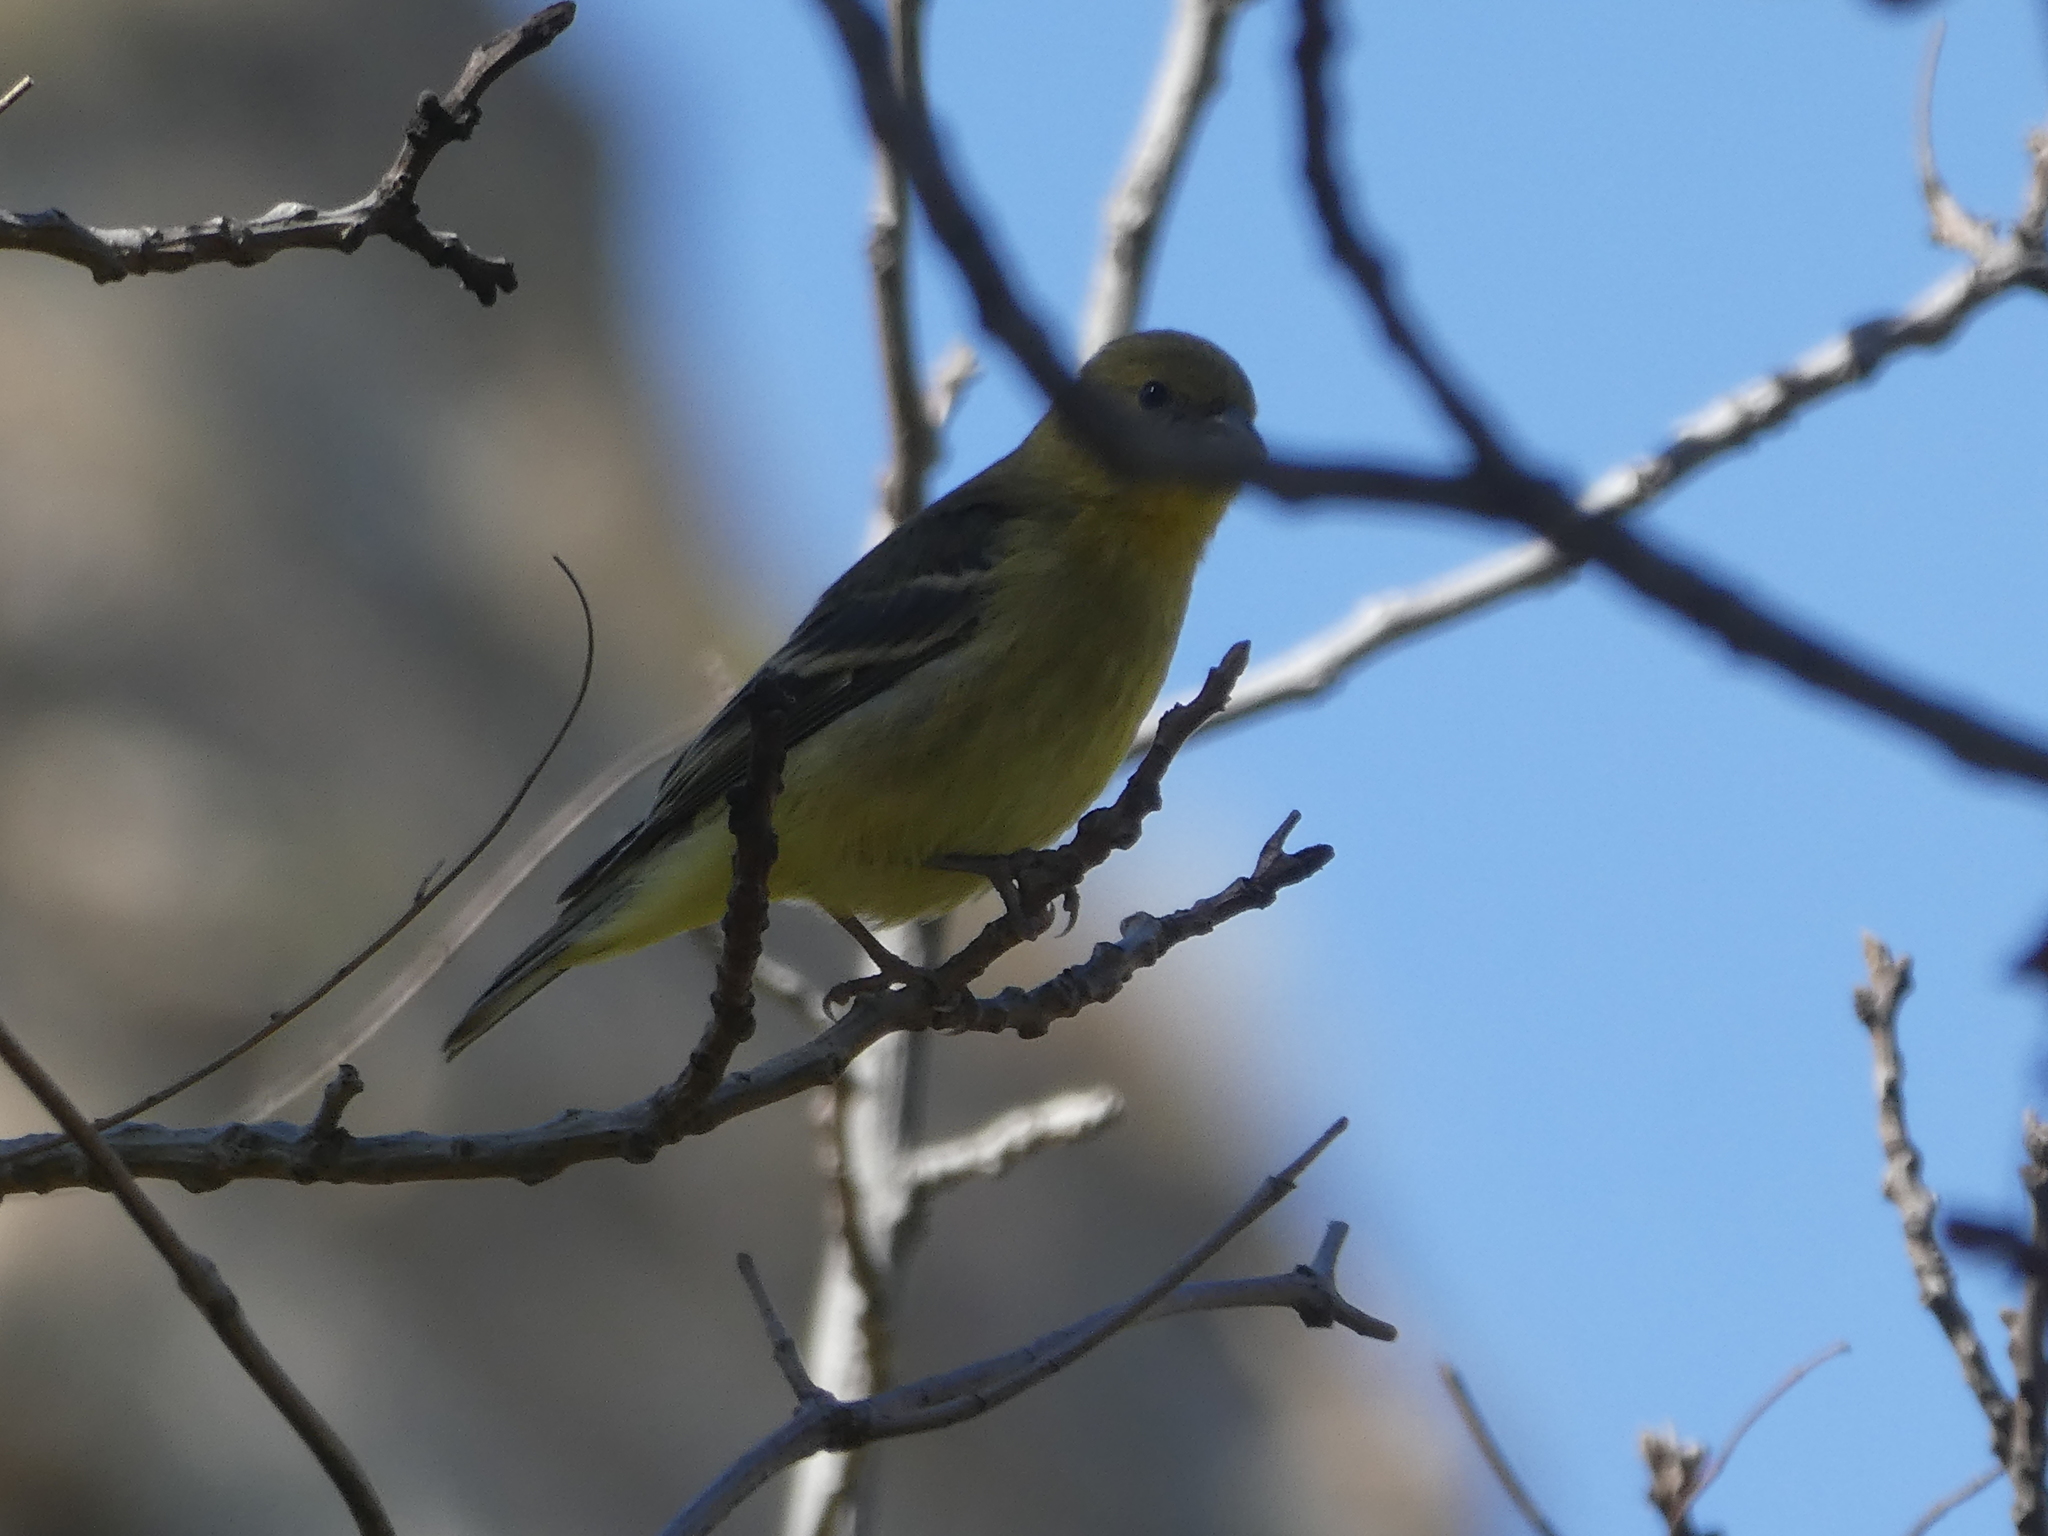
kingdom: Animalia
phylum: Chordata
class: Aves
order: Passeriformes
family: Fringillidae
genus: Spinus
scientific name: Spinus psaltria
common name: Lesser goldfinch
